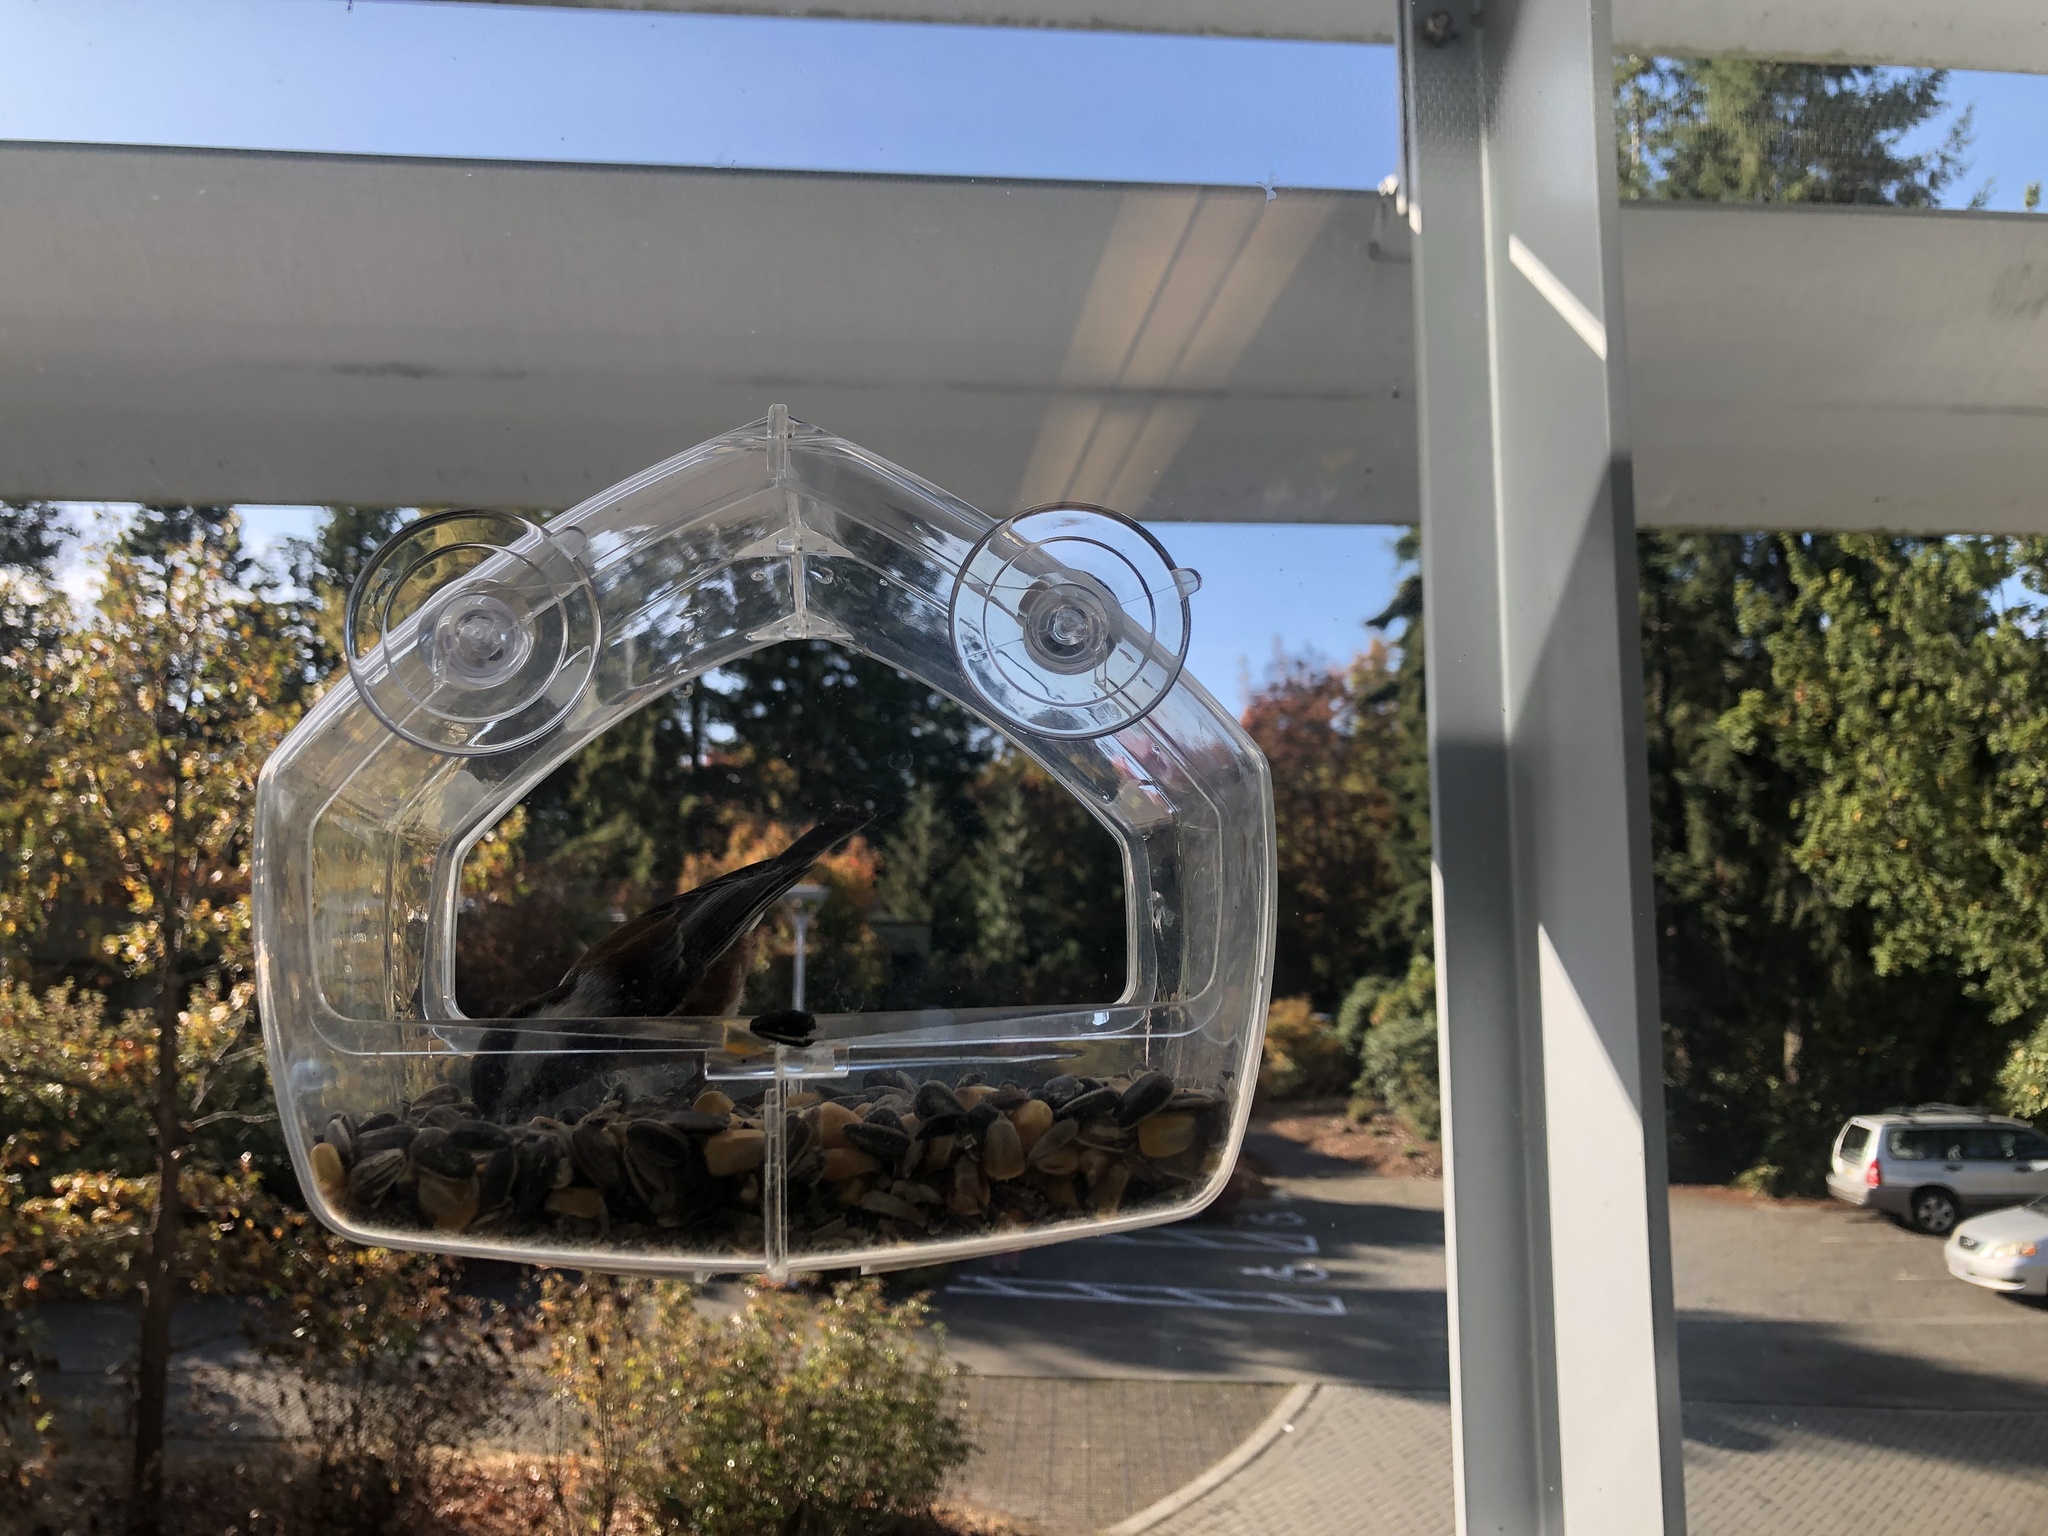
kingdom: Animalia
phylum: Chordata
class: Aves
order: Passeriformes
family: Paridae
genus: Poecile
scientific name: Poecile rufescens
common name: Chestnut-backed chickadee
